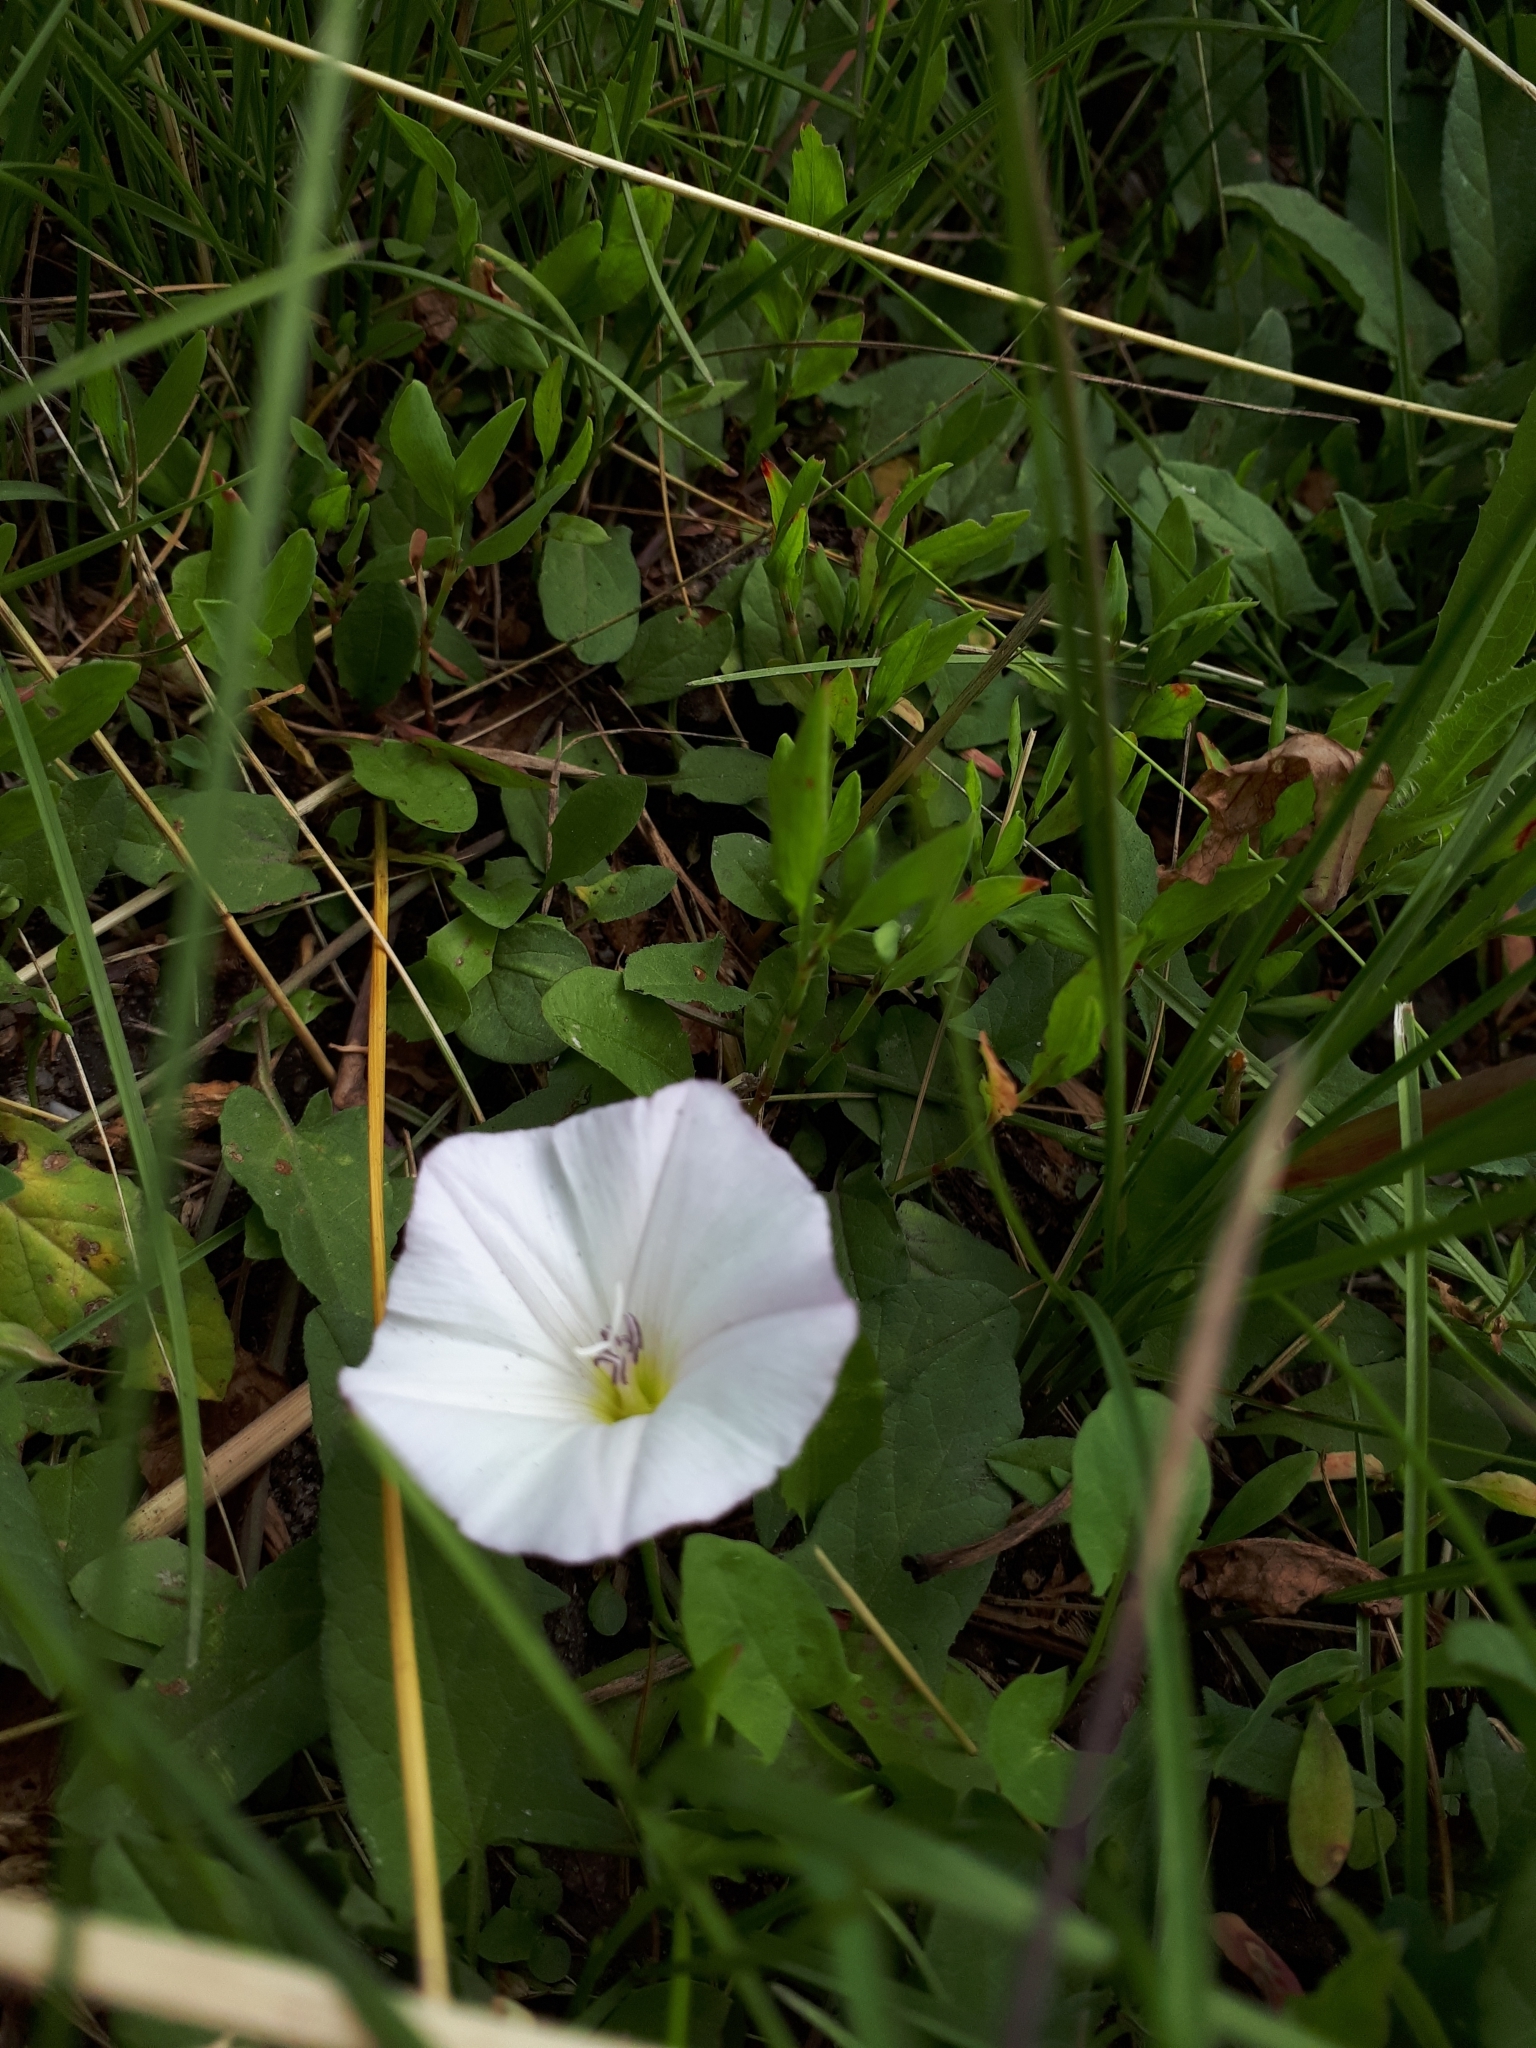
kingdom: Plantae
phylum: Tracheophyta
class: Magnoliopsida
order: Solanales
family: Convolvulaceae
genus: Convolvulus
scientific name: Convolvulus arvensis
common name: Field bindweed
